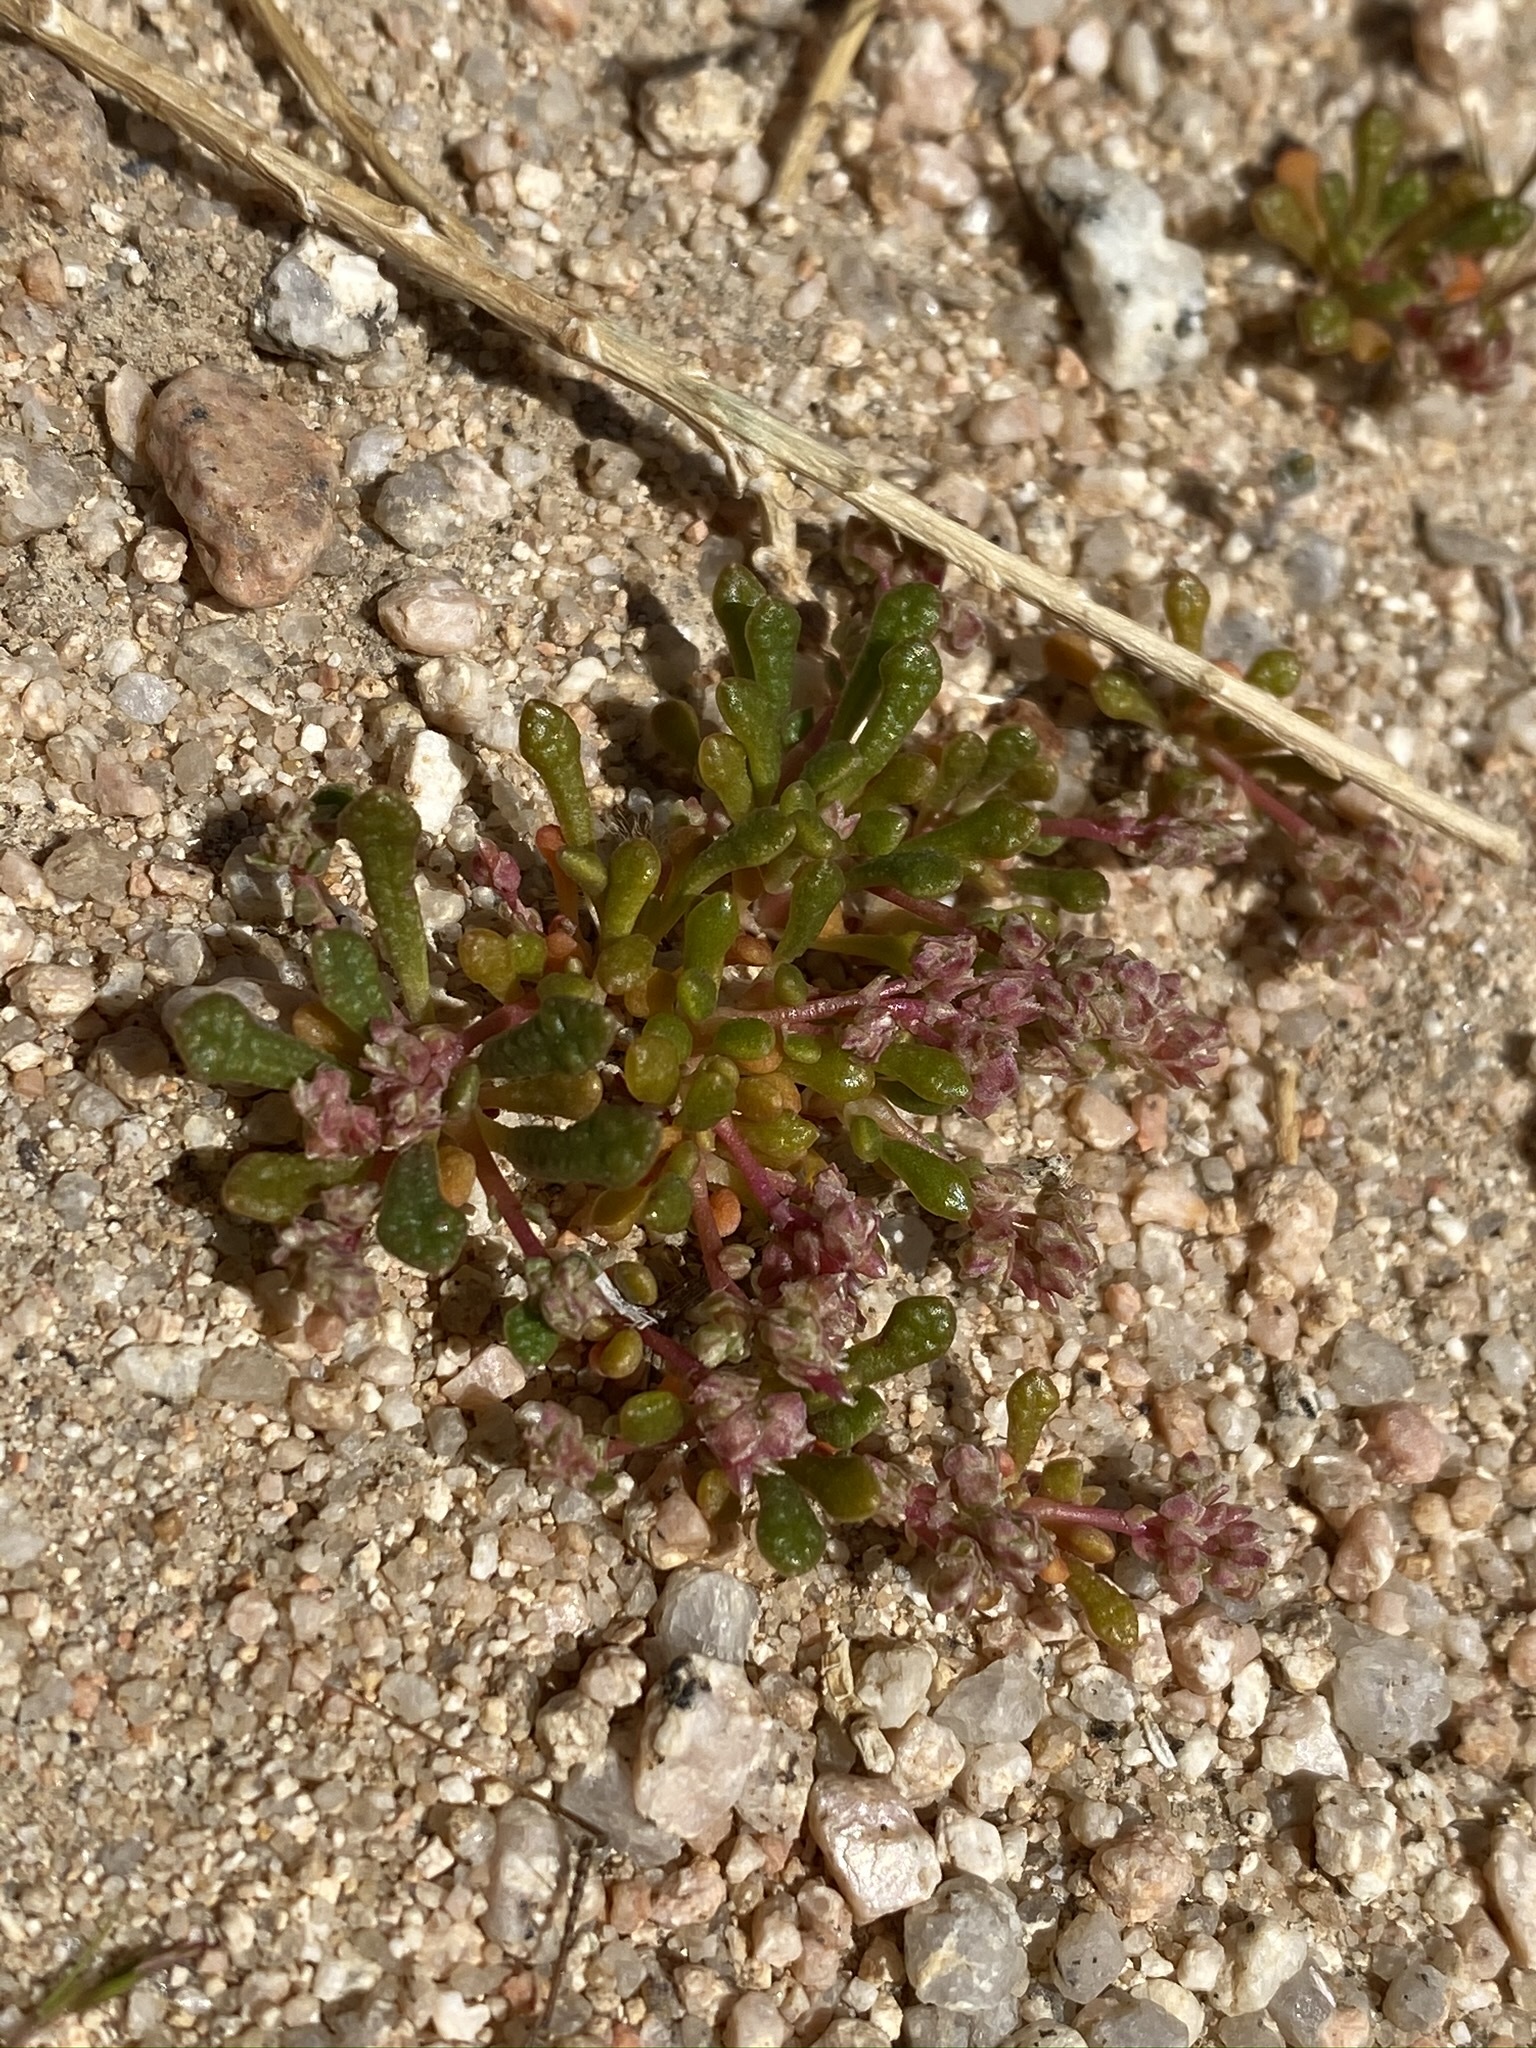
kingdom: Plantae
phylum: Tracheophyta
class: Magnoliopsida
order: Caryophyllales
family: Montiaceae
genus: Calyptridium
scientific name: Calyptridium monandrum
